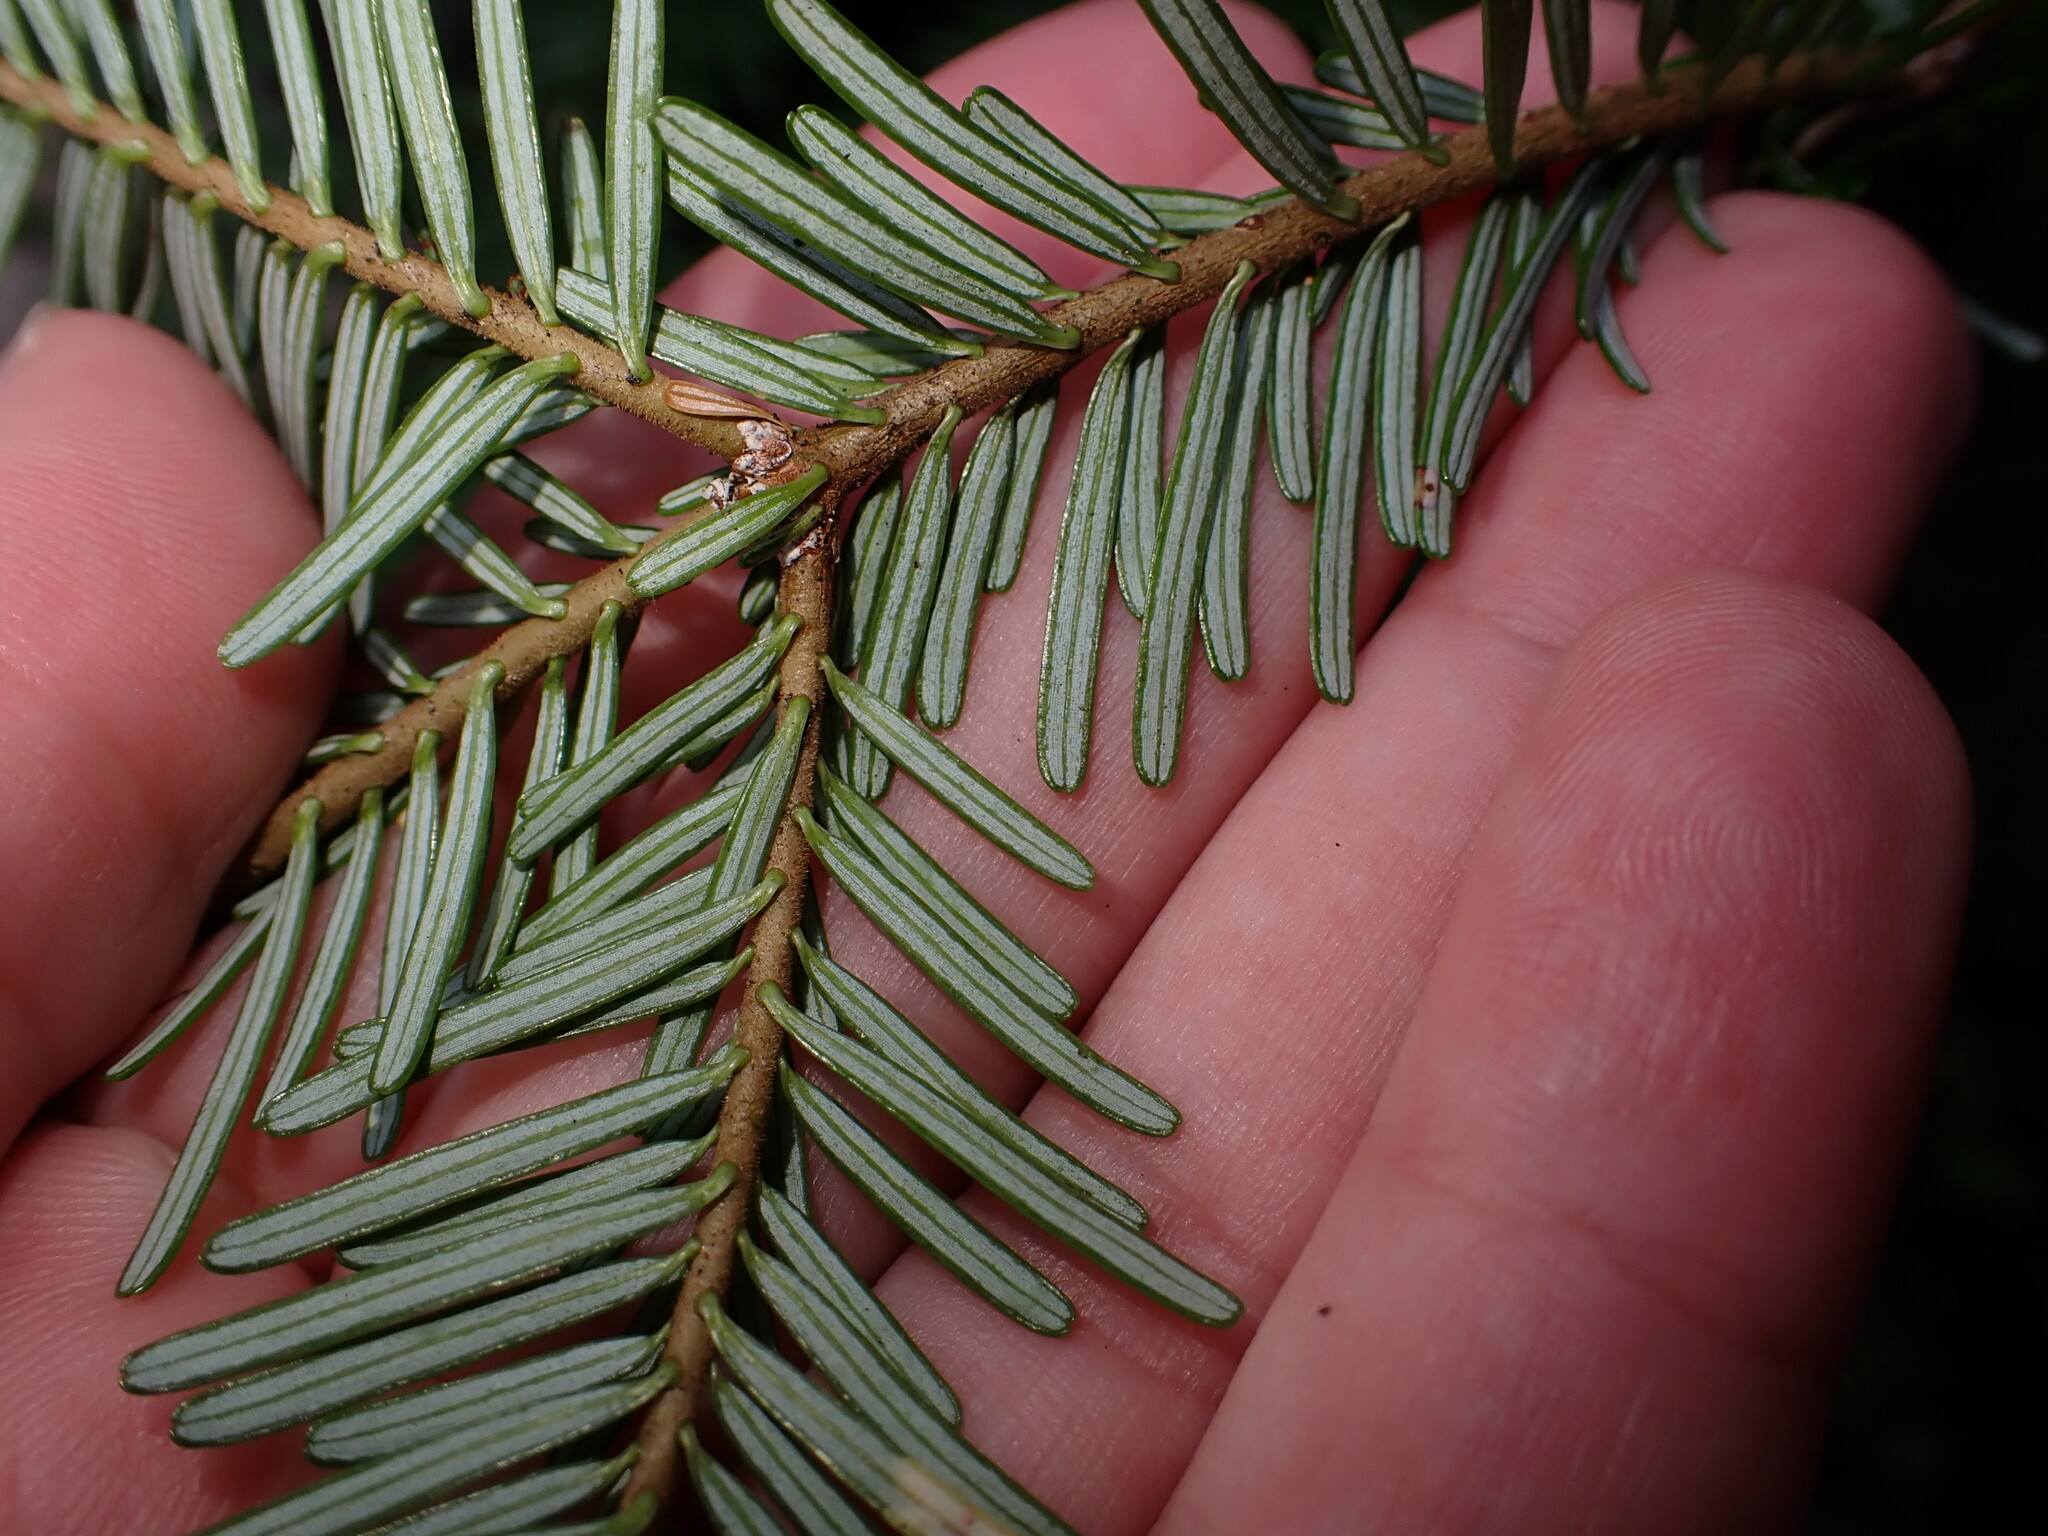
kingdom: Plantae
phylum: Tracheophyta
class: Pinopsida
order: Pinales
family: Pinaceae
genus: Abies
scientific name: Abies amabilis
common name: Pacific silver fir
